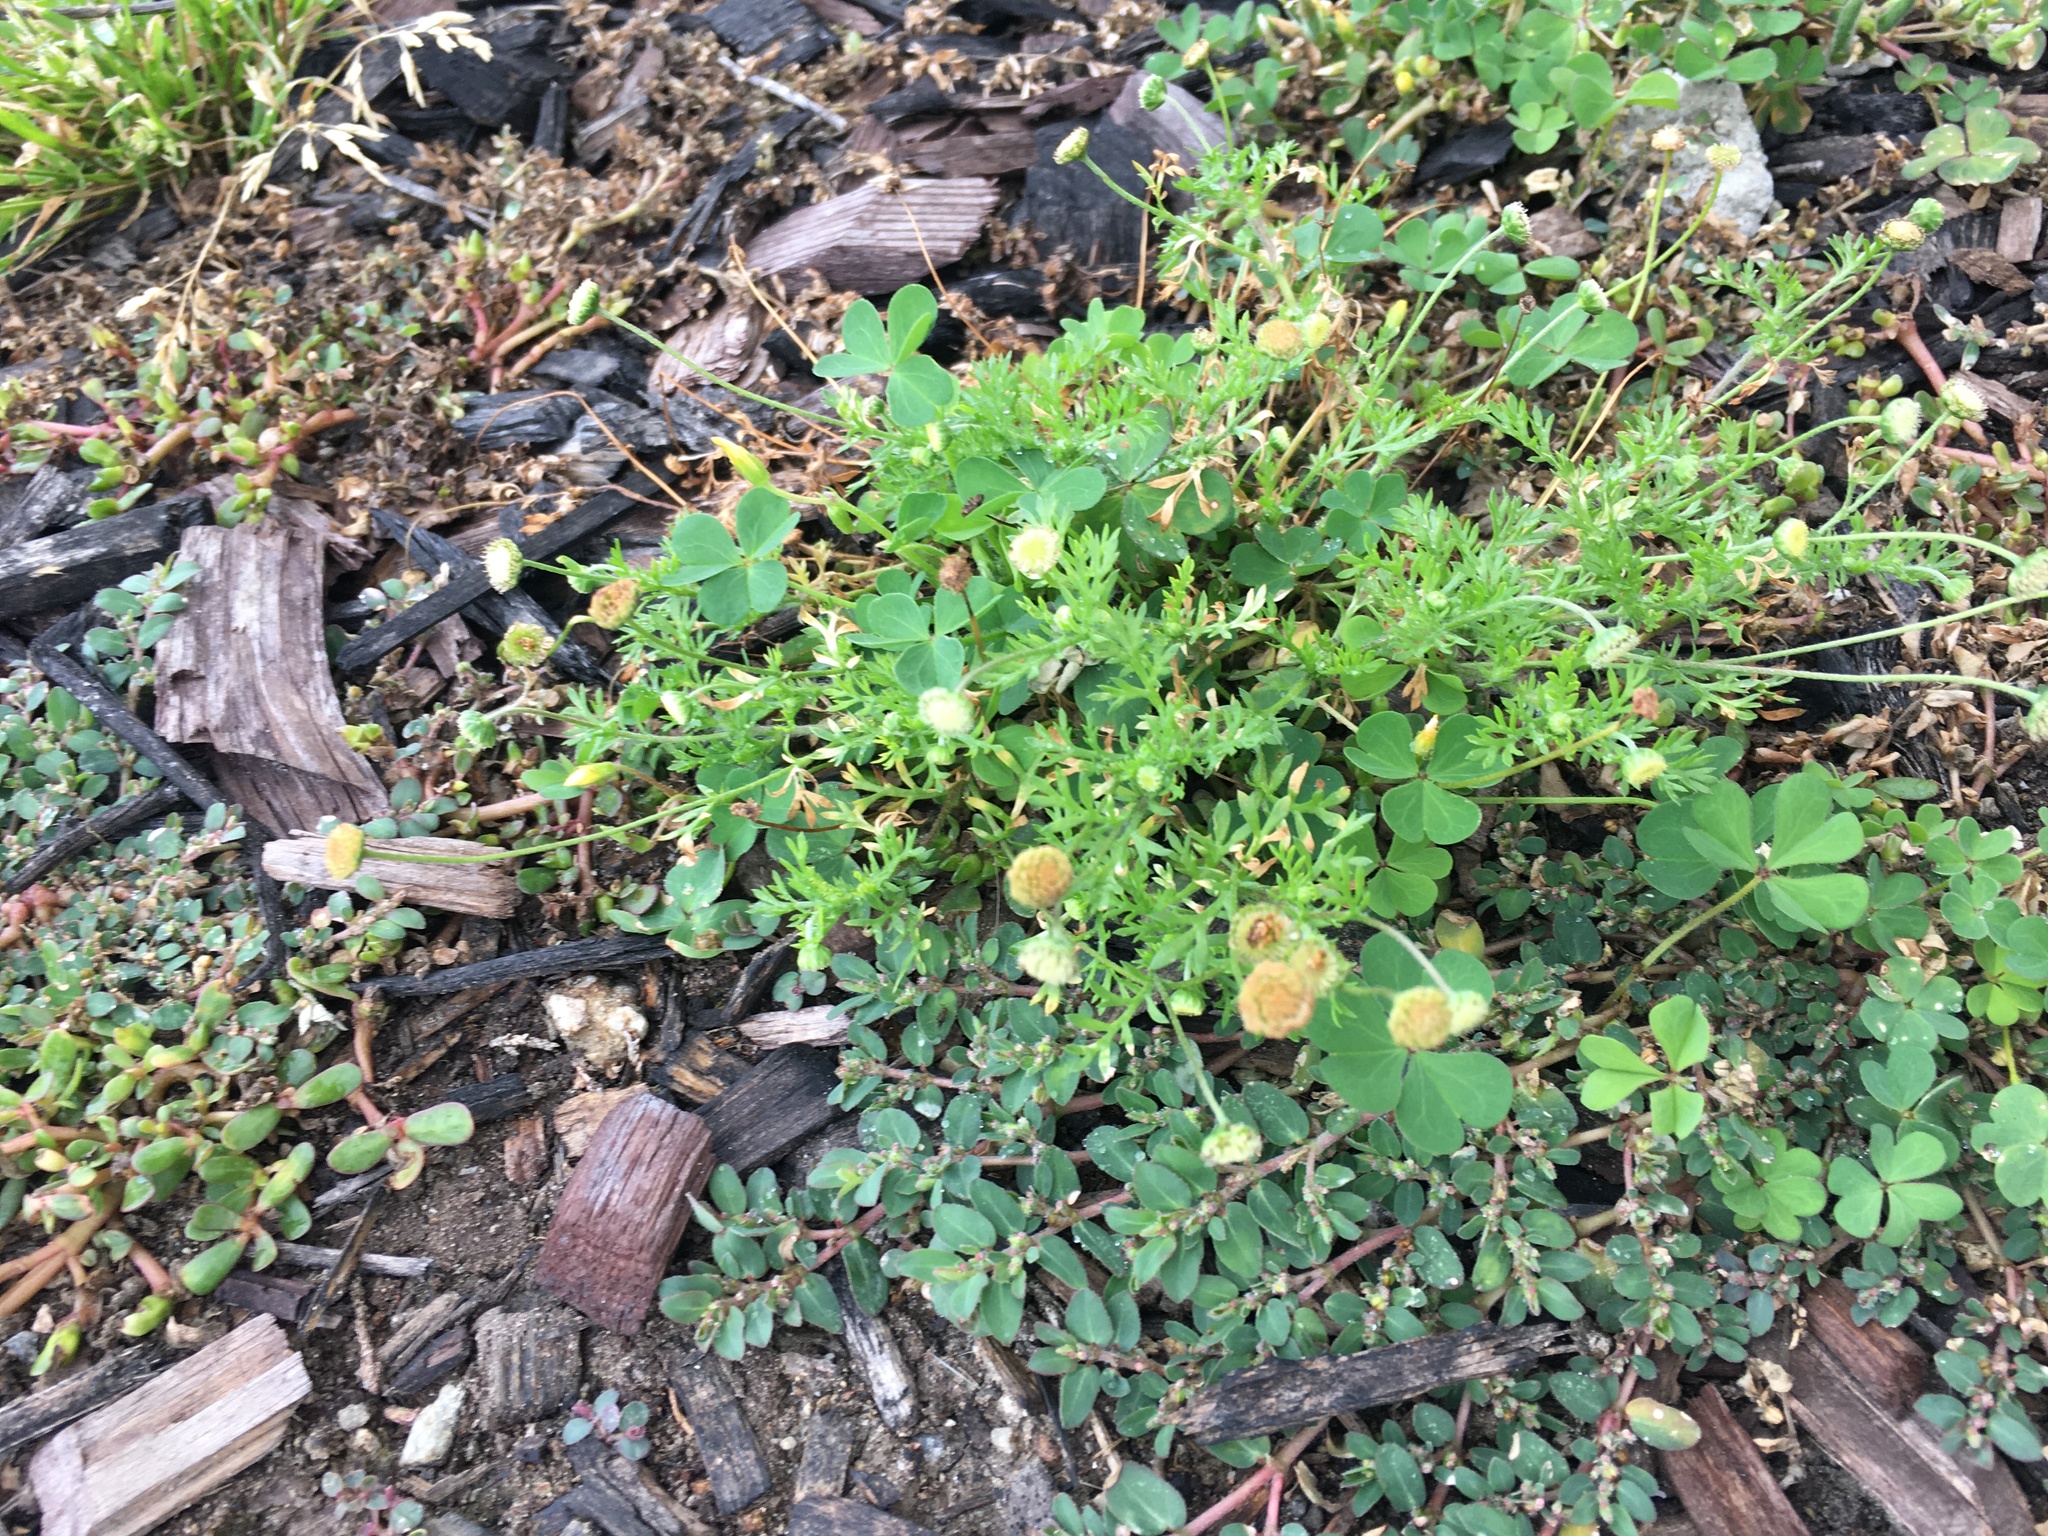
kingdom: Plantae
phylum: Tracheophyta
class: Magnoliopsida
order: Asterales
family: Asteraceae
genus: Cotula
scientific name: Cotula australis
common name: Australian waterbuttons
